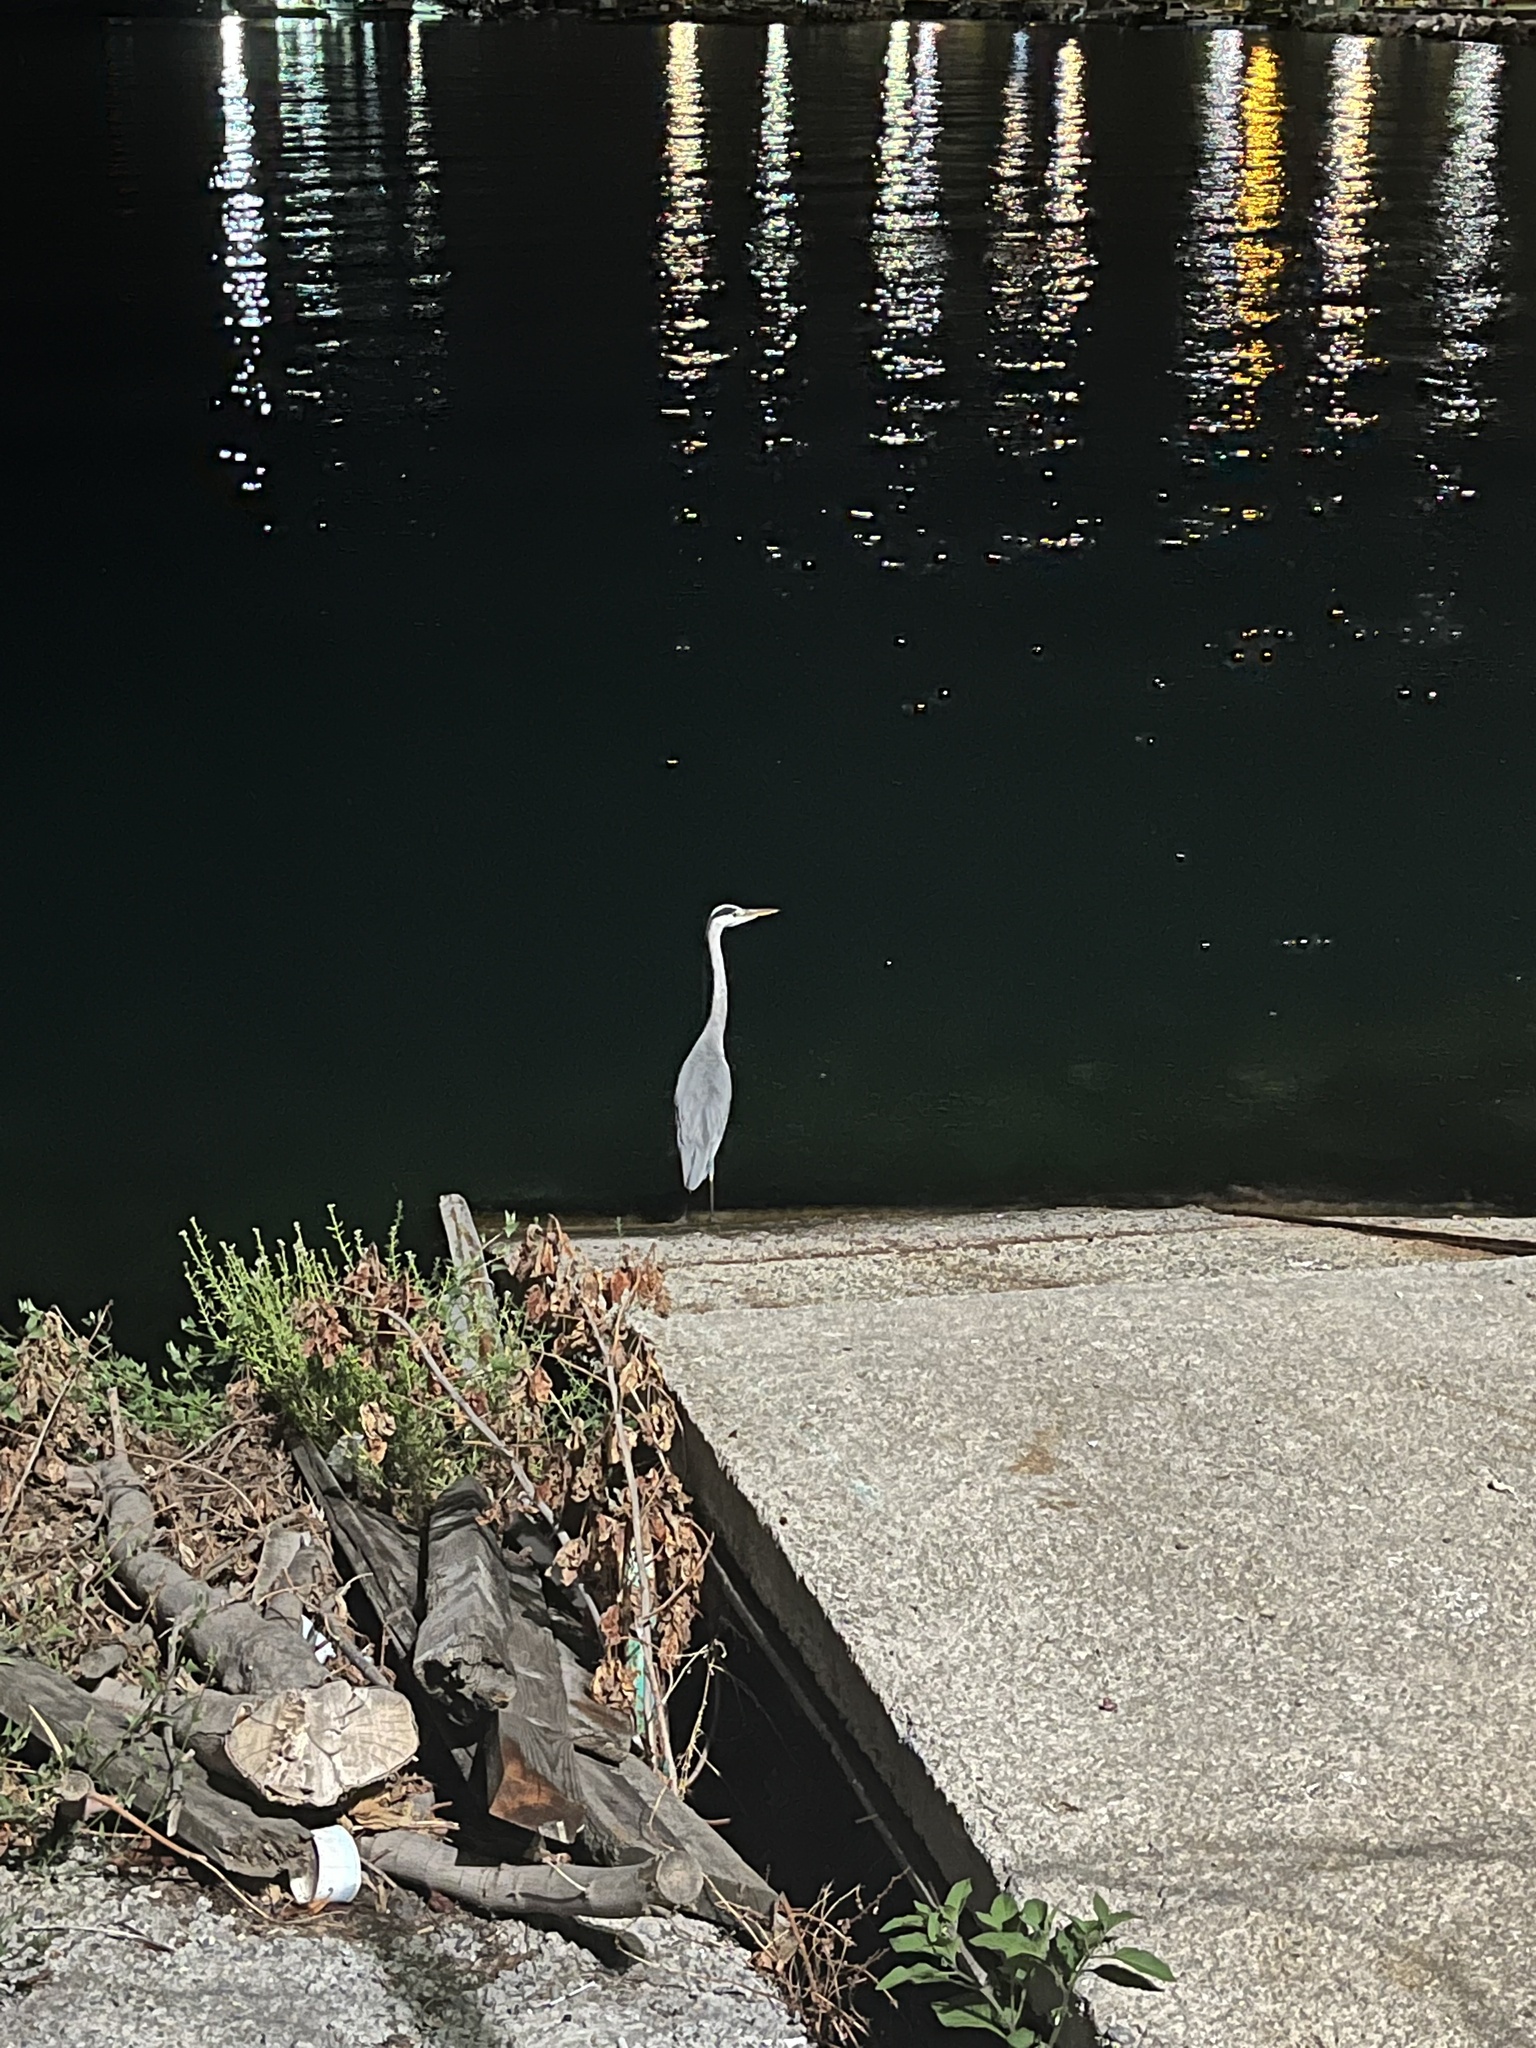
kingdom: Animalia
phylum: Chordata
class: Aves
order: Pelecaniformes
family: Ardeidae
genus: Ardea
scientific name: Ardea cinerea
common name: Grey heron
